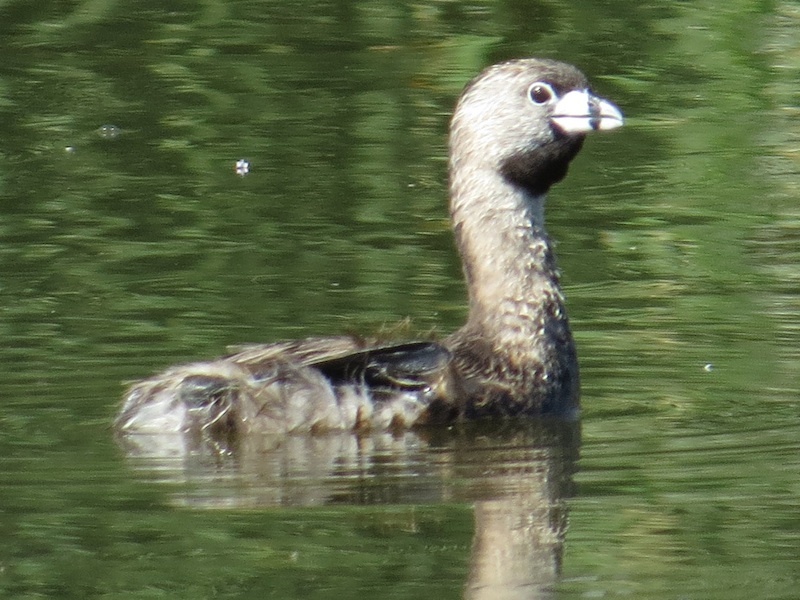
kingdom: Animalia
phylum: Chordata
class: Aves
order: Podicipediformes
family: Podicipedidae
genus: Podilymbus
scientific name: Podilymbus podiceps
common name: Pied-billed grebe
